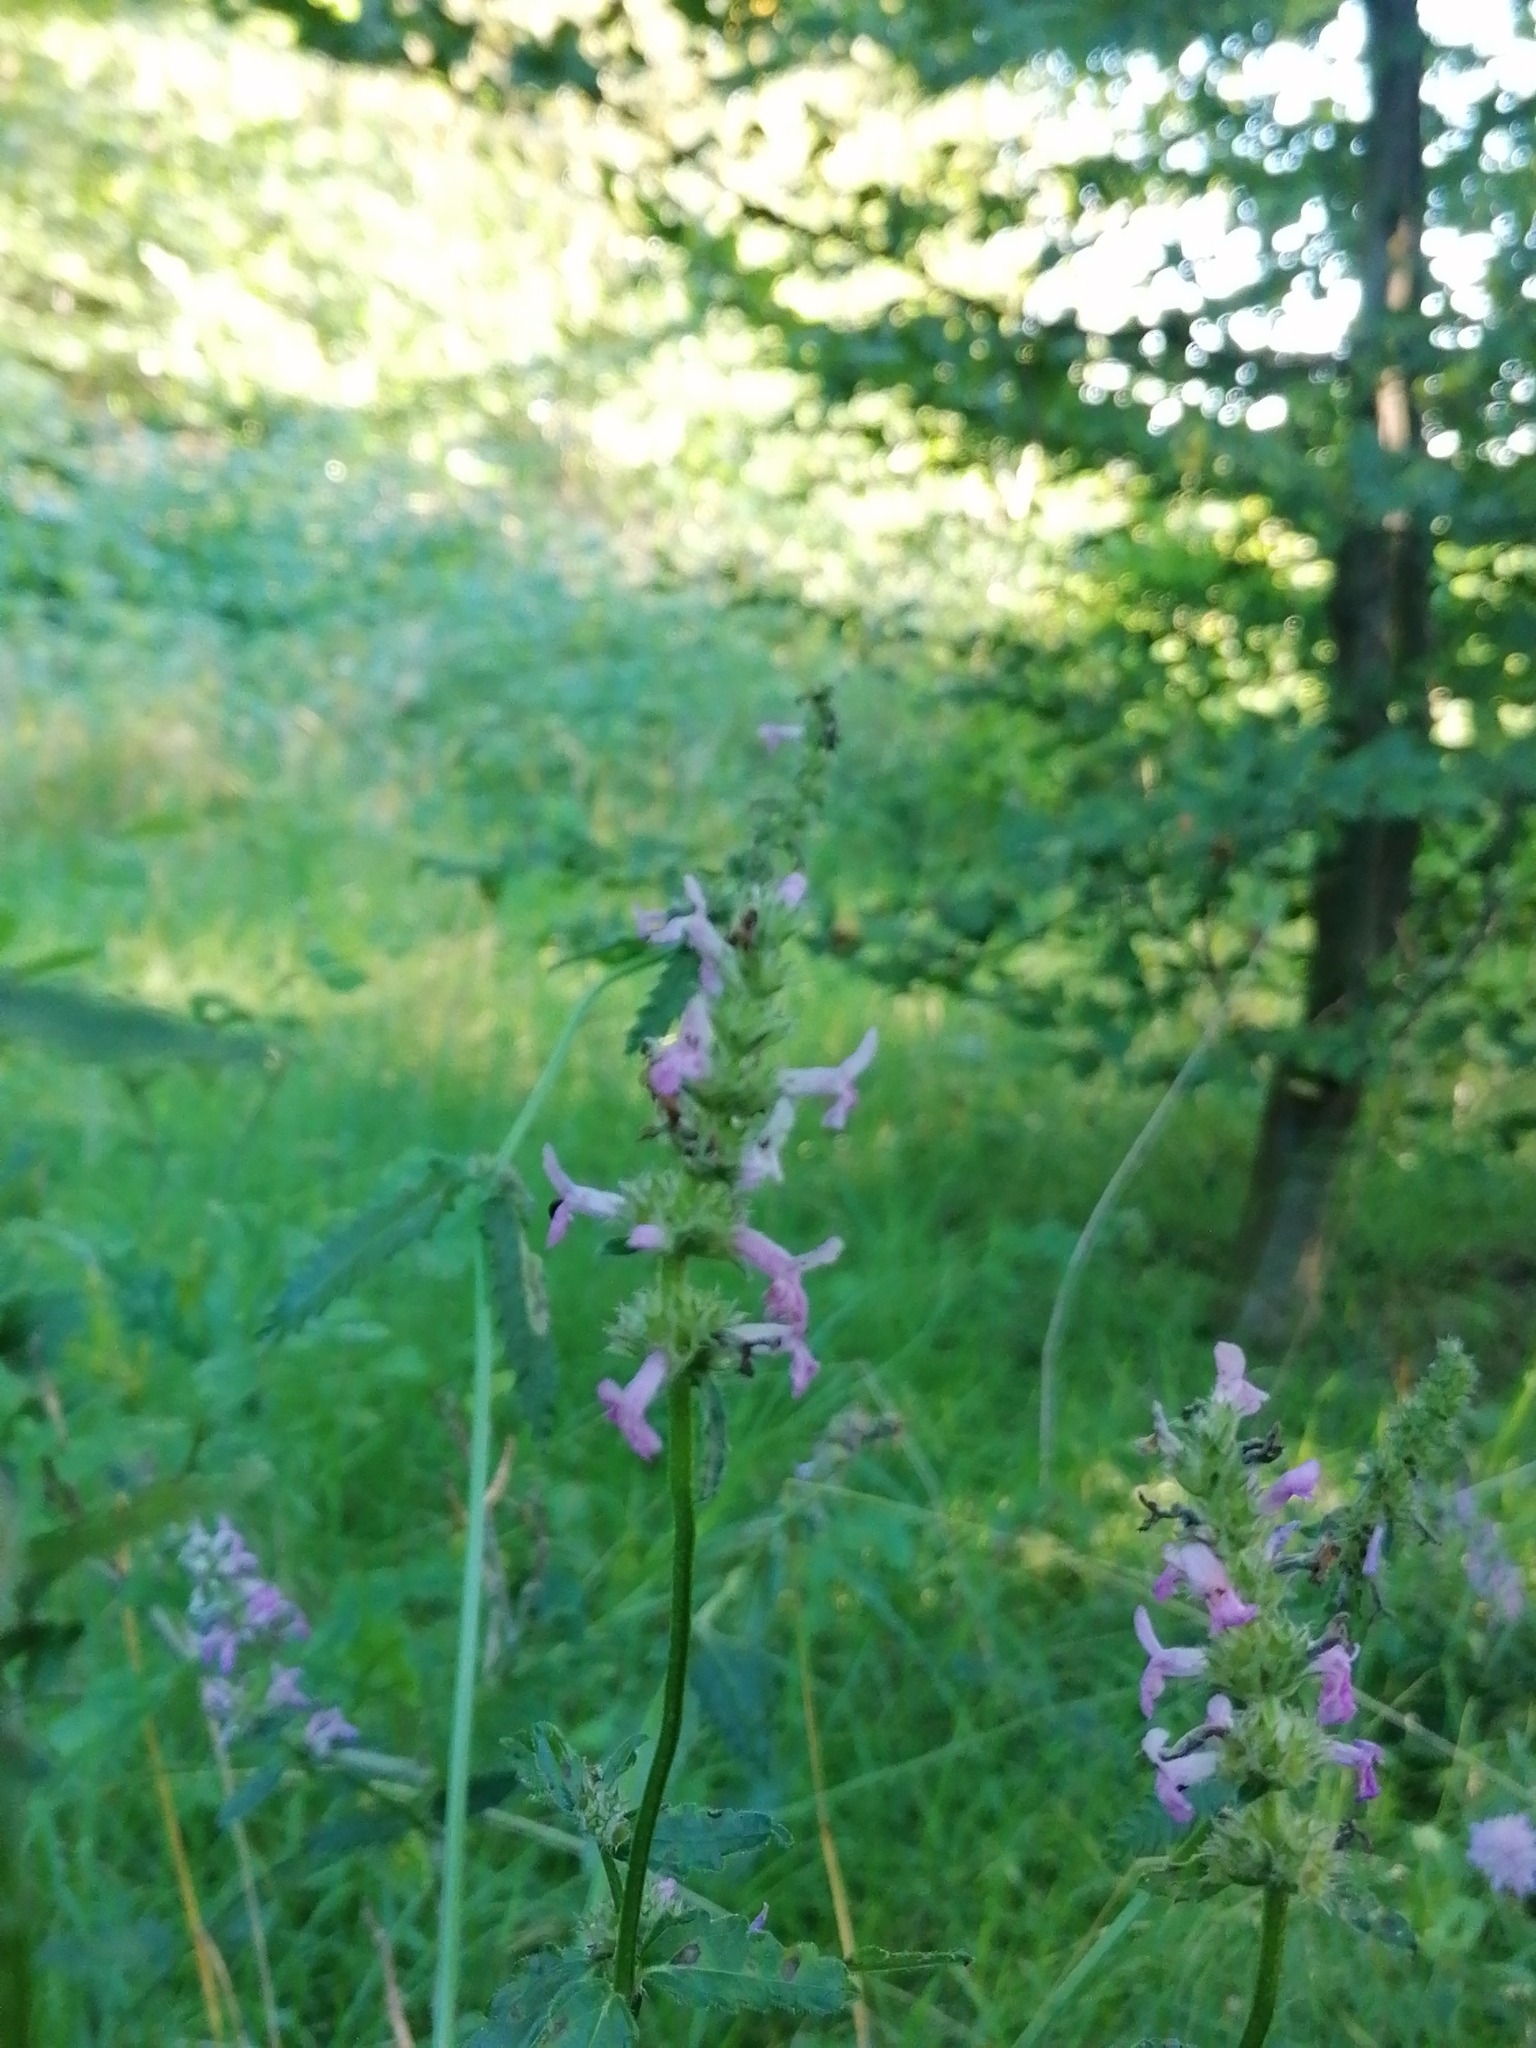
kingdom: Plantae
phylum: Tracheophyta
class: Magnoliopsida
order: Lamiales
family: Lamiaceae
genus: Betonica
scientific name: Betonica officinalis
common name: Bishop's-wort
